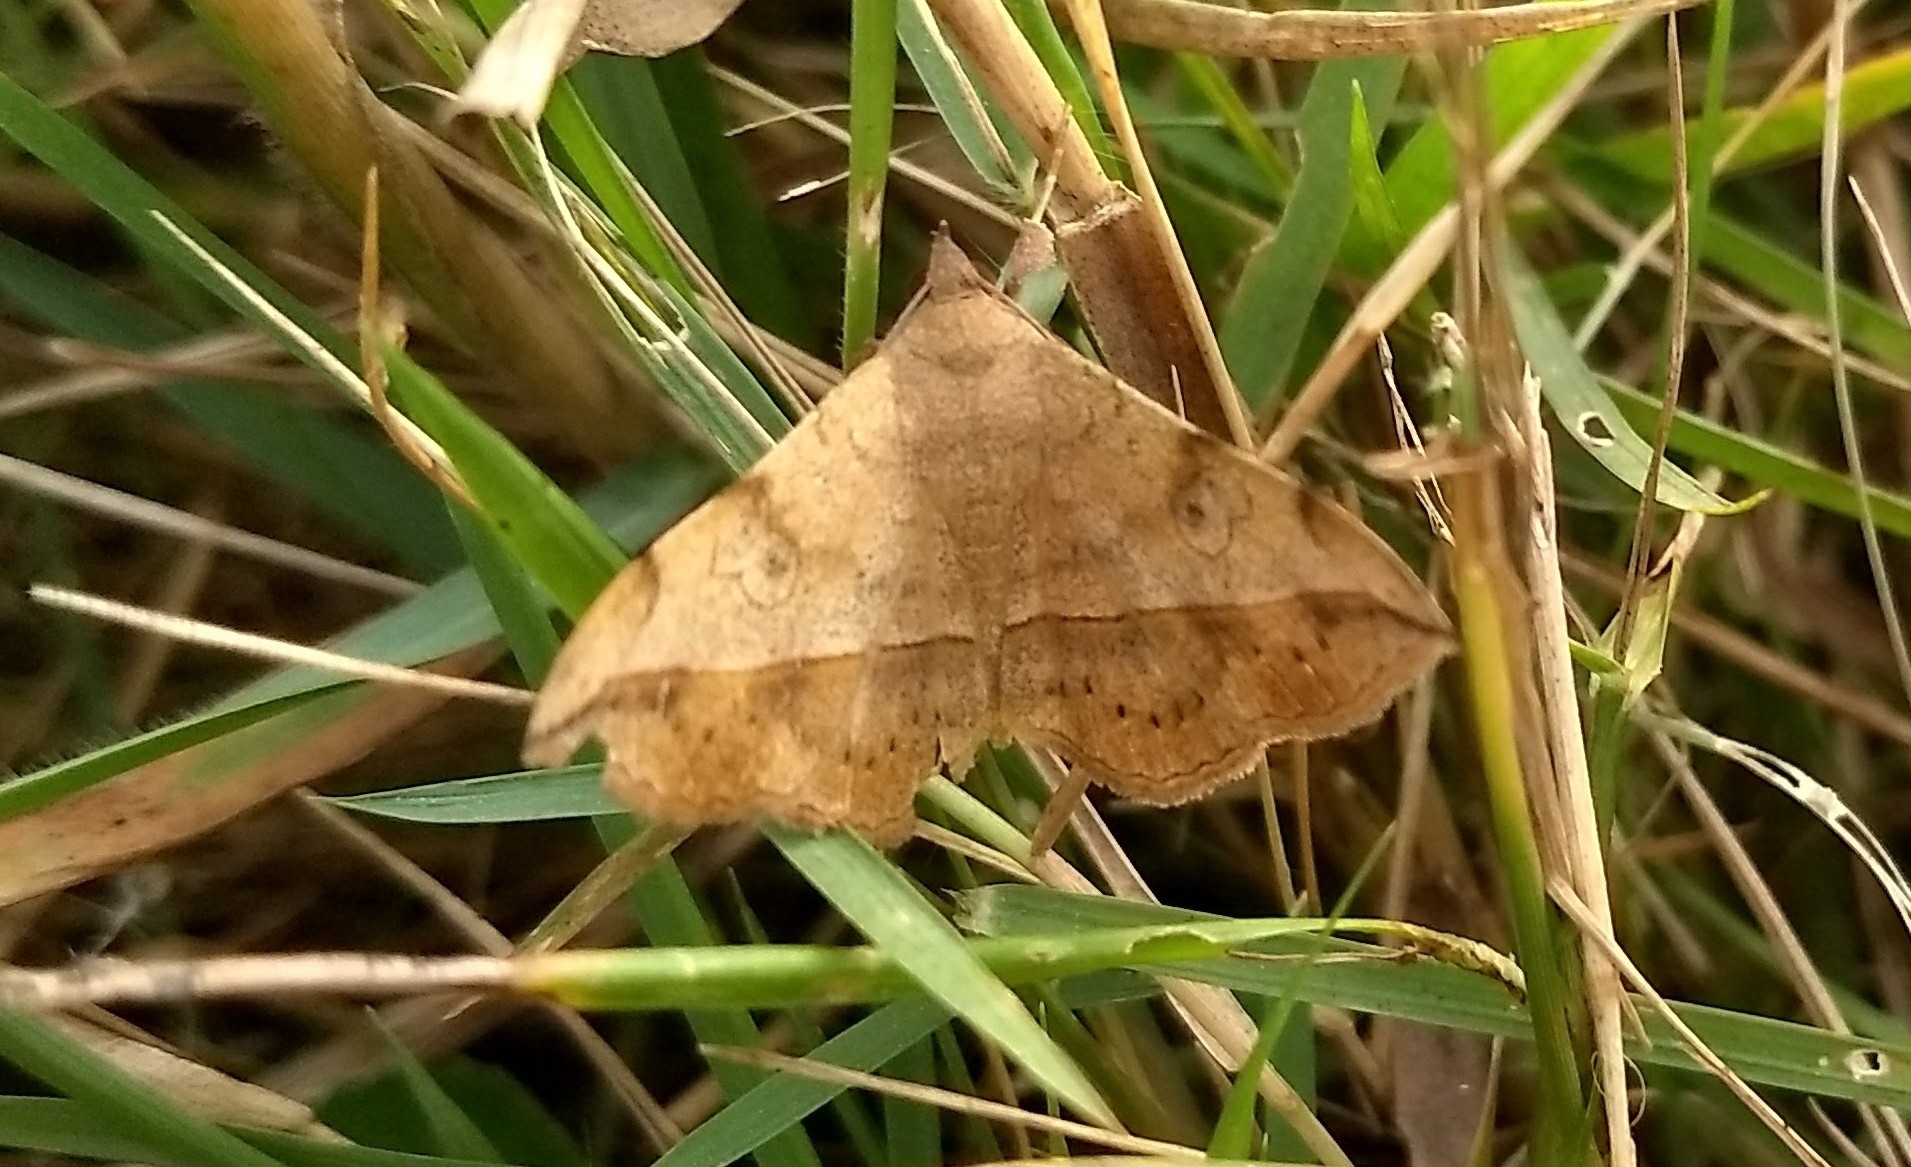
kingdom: Animalia
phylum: Arthropoda
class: Insecta
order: Lepidoptera
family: Erebidae
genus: Anticarsia
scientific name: Anticarsia irrorata
